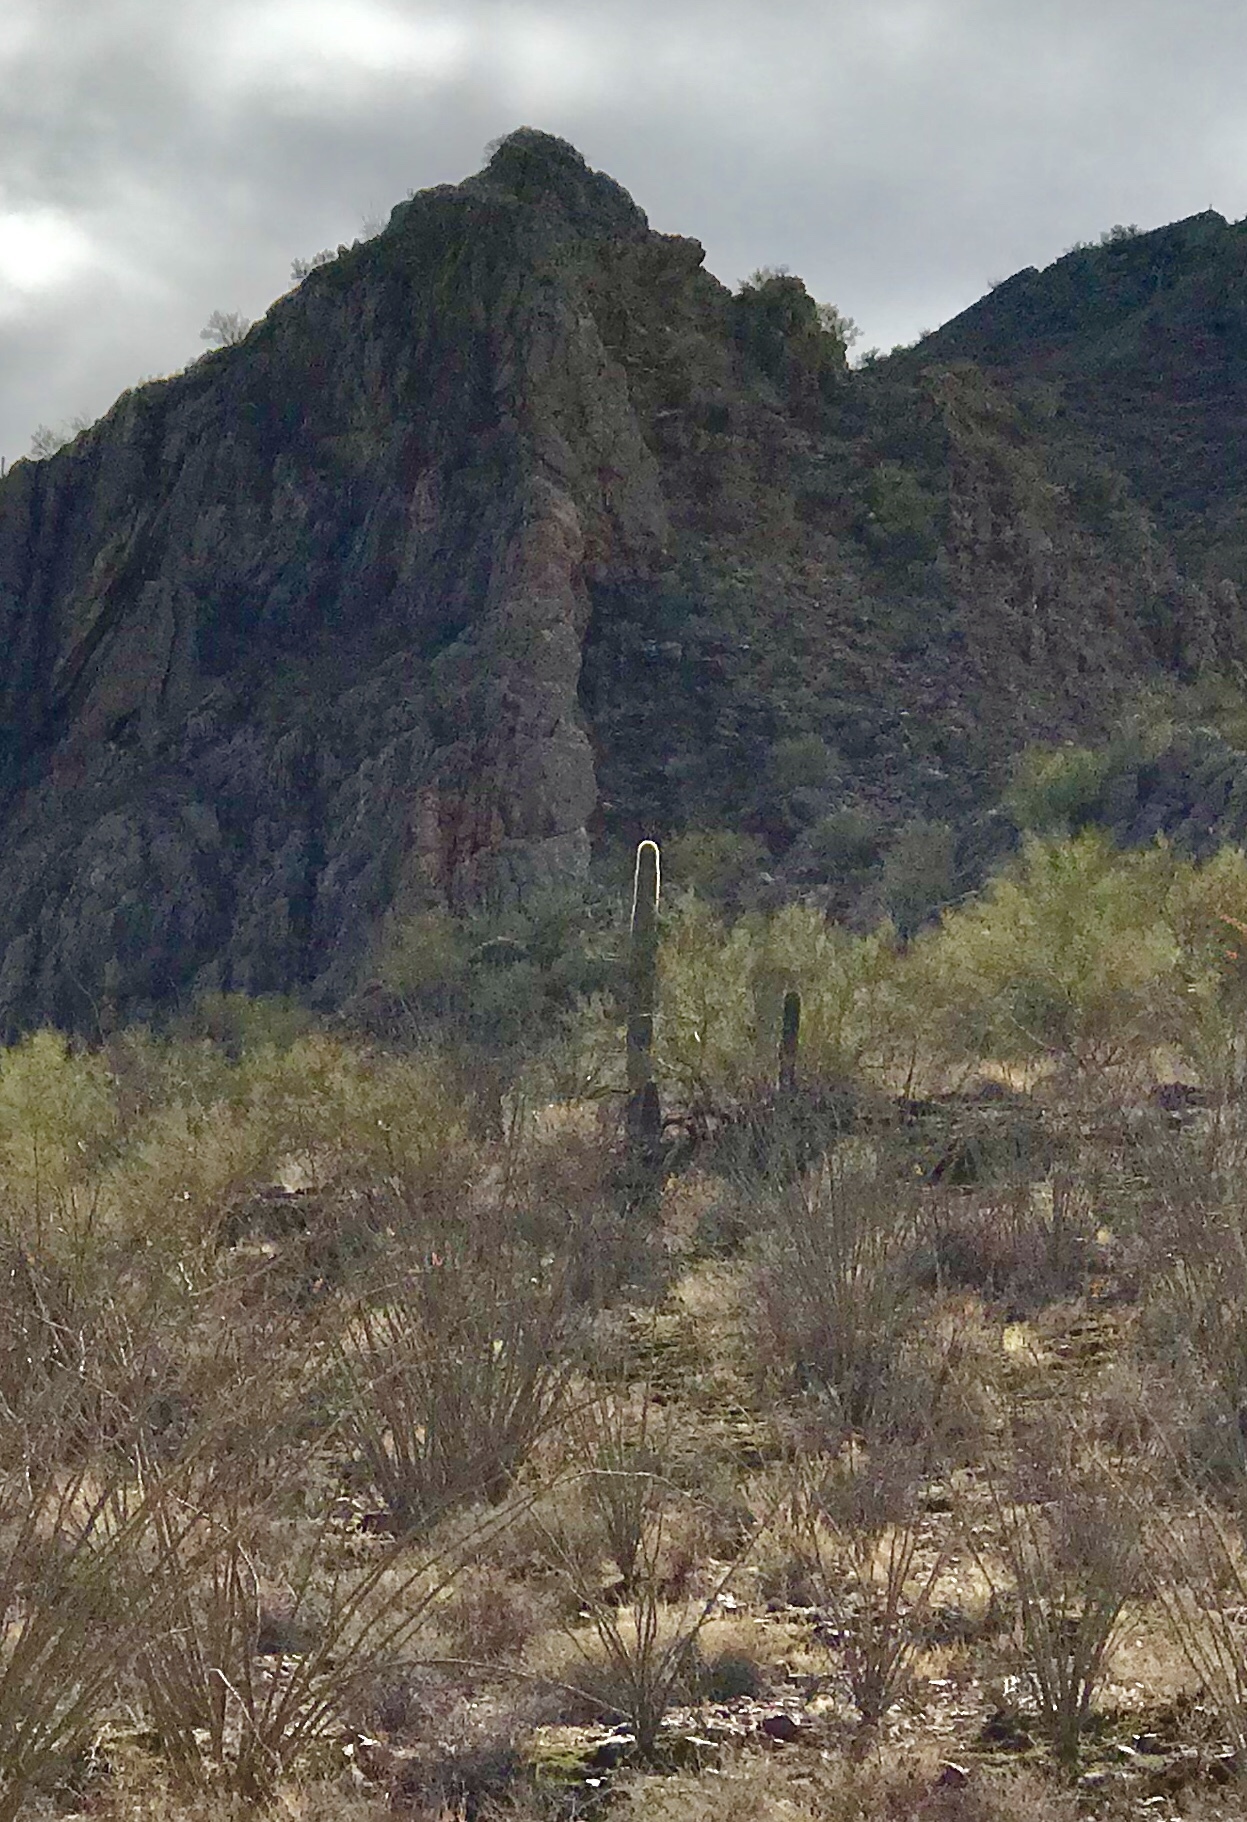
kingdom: Plantae
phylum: Tracheophyta
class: Magnoliopsida
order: Caryophyllales
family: Cactaceae
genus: Carnegiea
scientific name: Carnegiea gigantea
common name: Saguaro
